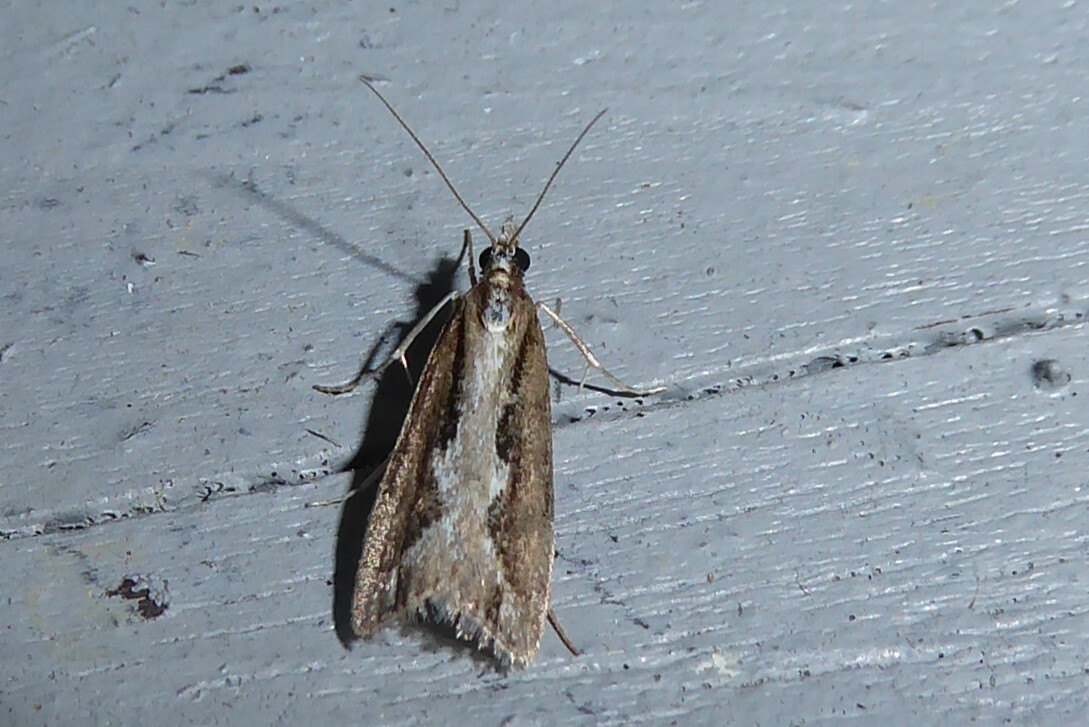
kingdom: Animalia
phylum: Arthropoda
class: Insecta
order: Lepidoptera
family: Crambidae
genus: Eudonia
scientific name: Eudonia steropaea
